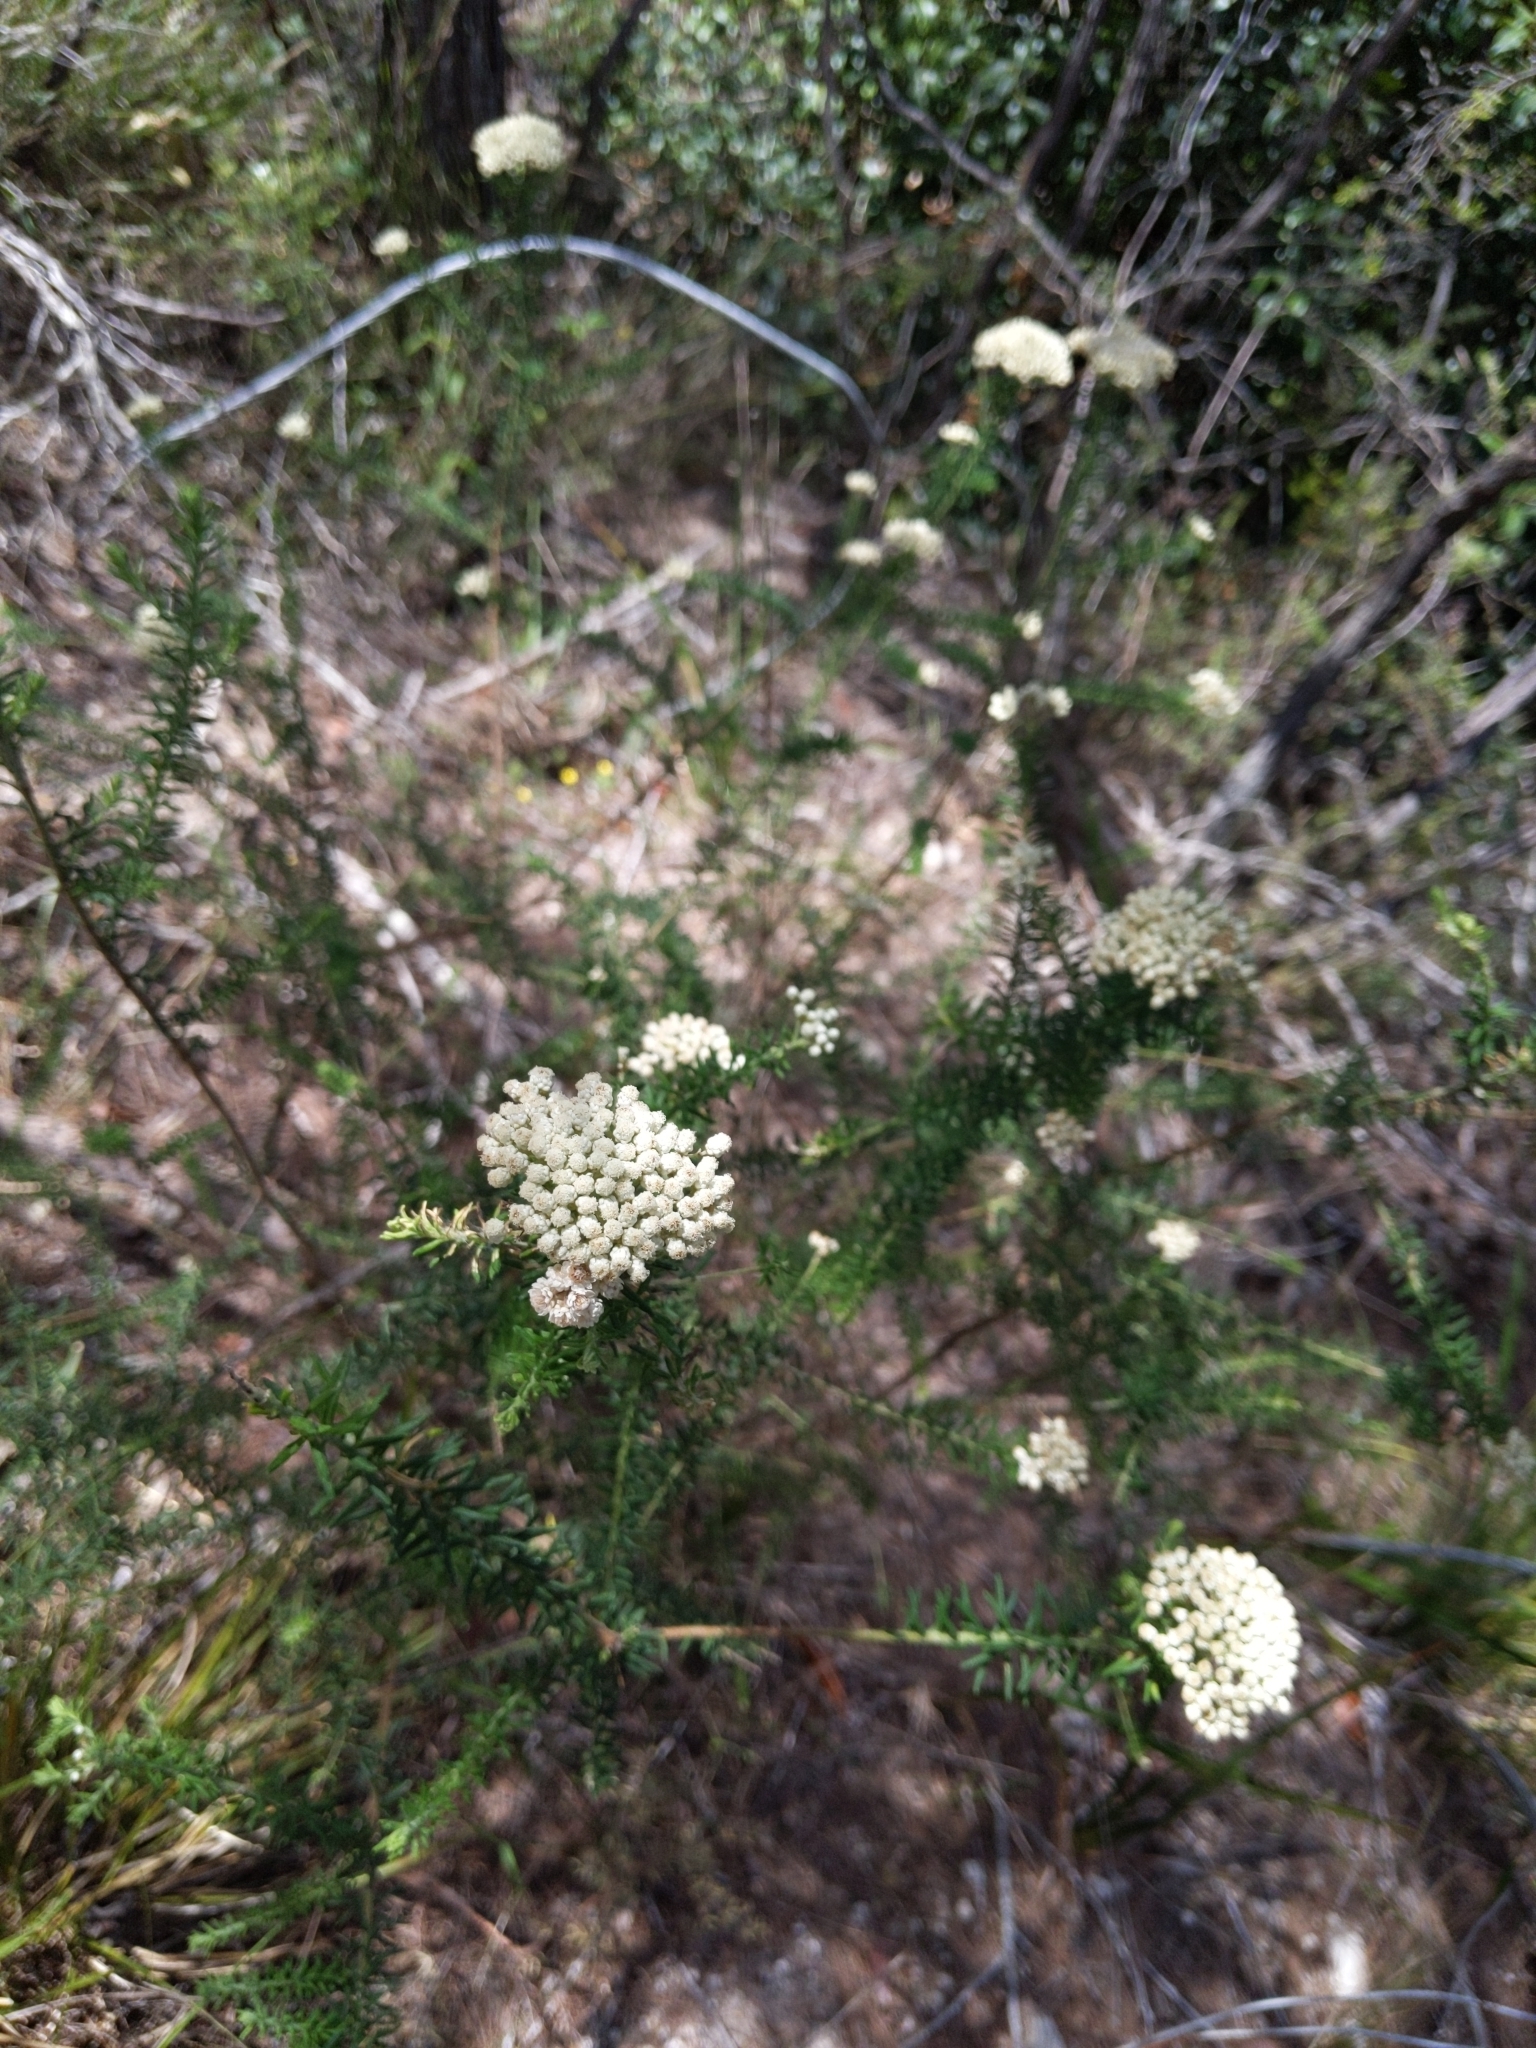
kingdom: Plantae
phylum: Tracheophyta
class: Magnoliopsida
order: Asterales
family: Asteraceae
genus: Ozothamnus
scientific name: Ozothamnus diosmifolius
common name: White-dogwood
